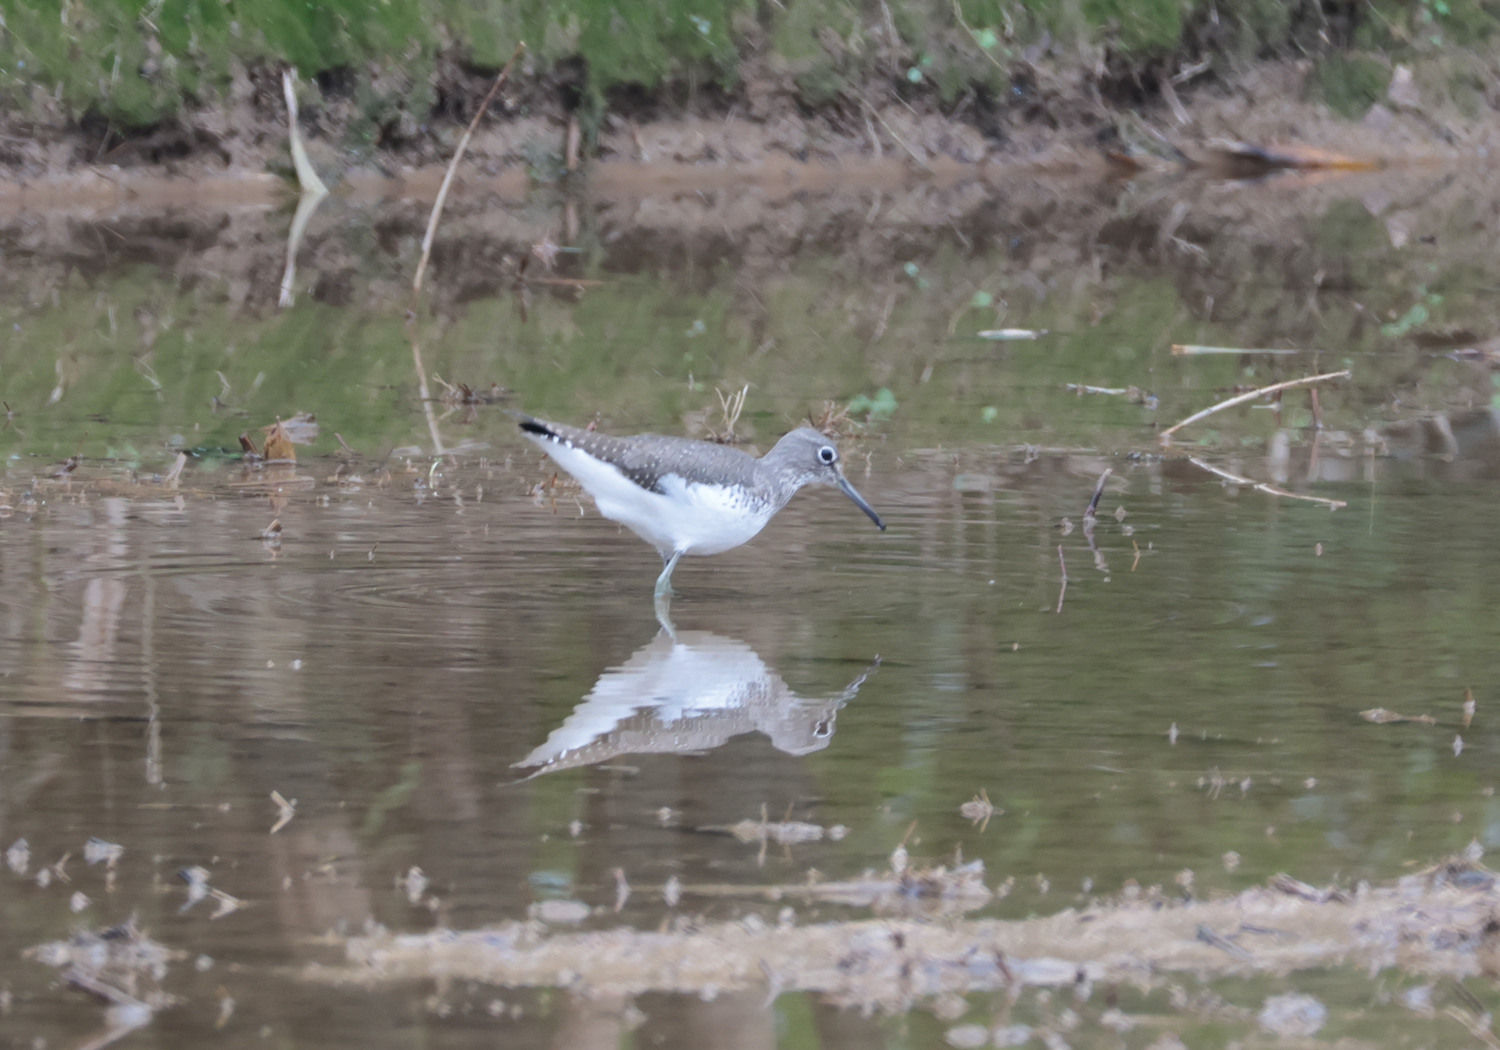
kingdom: Animalia
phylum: Chordata
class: Aves
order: Charadriiformes
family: Scolopacidae
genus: Tringa
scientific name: Tringa ochropus
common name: Green sandpiper
